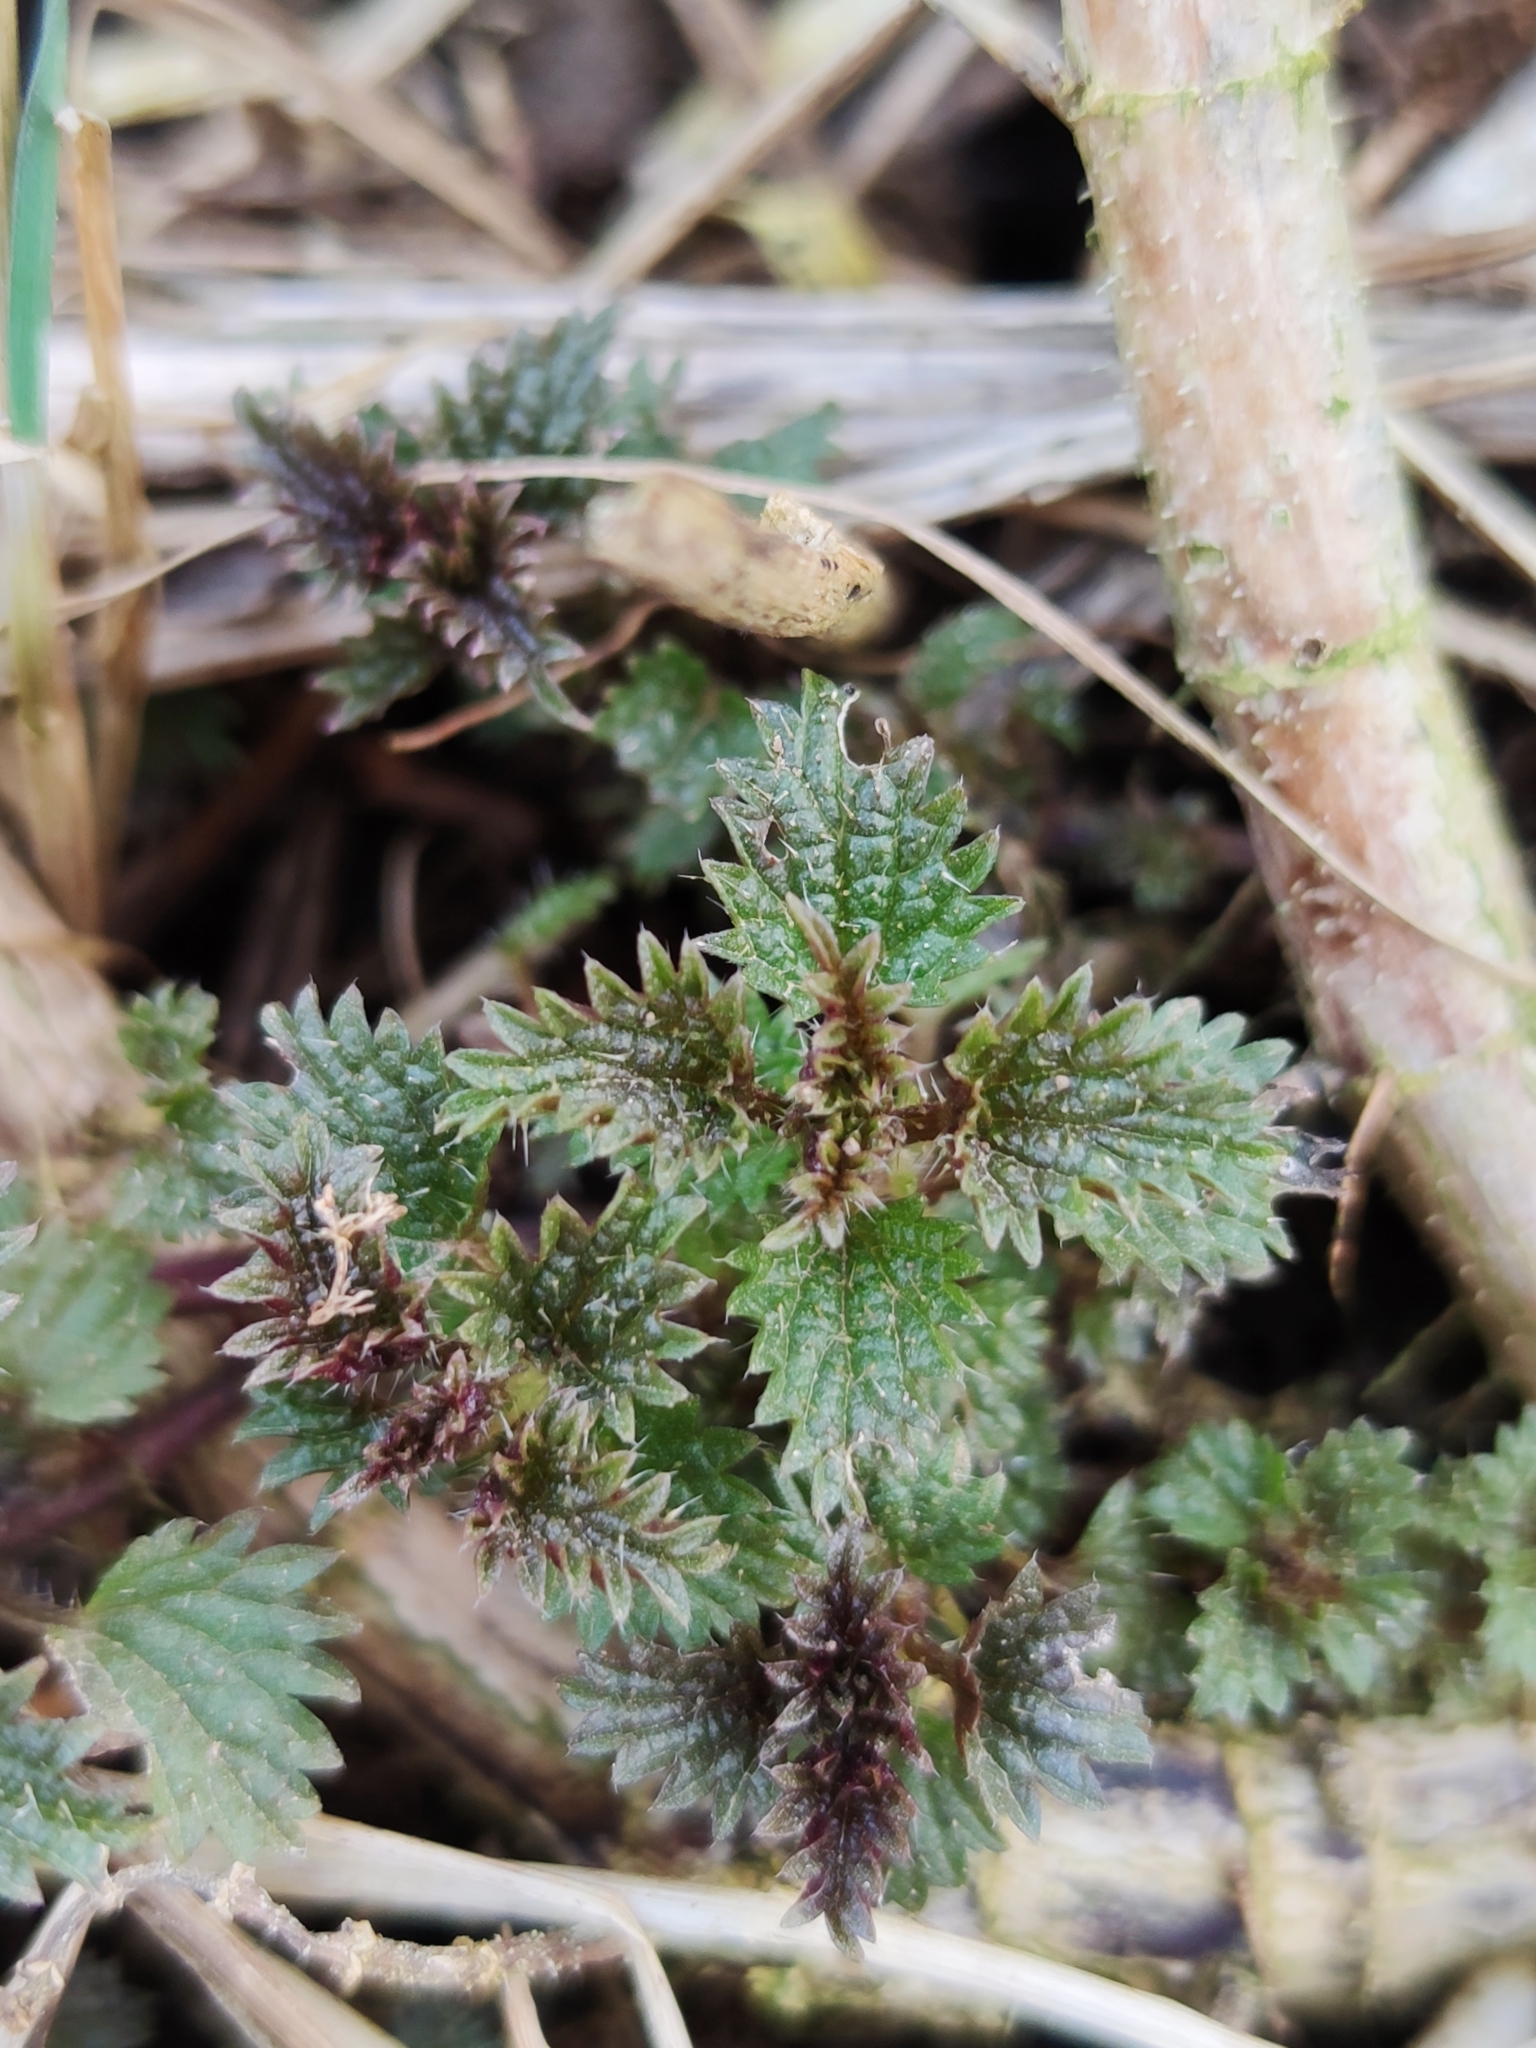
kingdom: Plantae
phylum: Tracheophyta
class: Magnoliopsida
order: Rosales
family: Urticaceae
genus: Urtica
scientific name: Urtica dioica
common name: Common nettle
